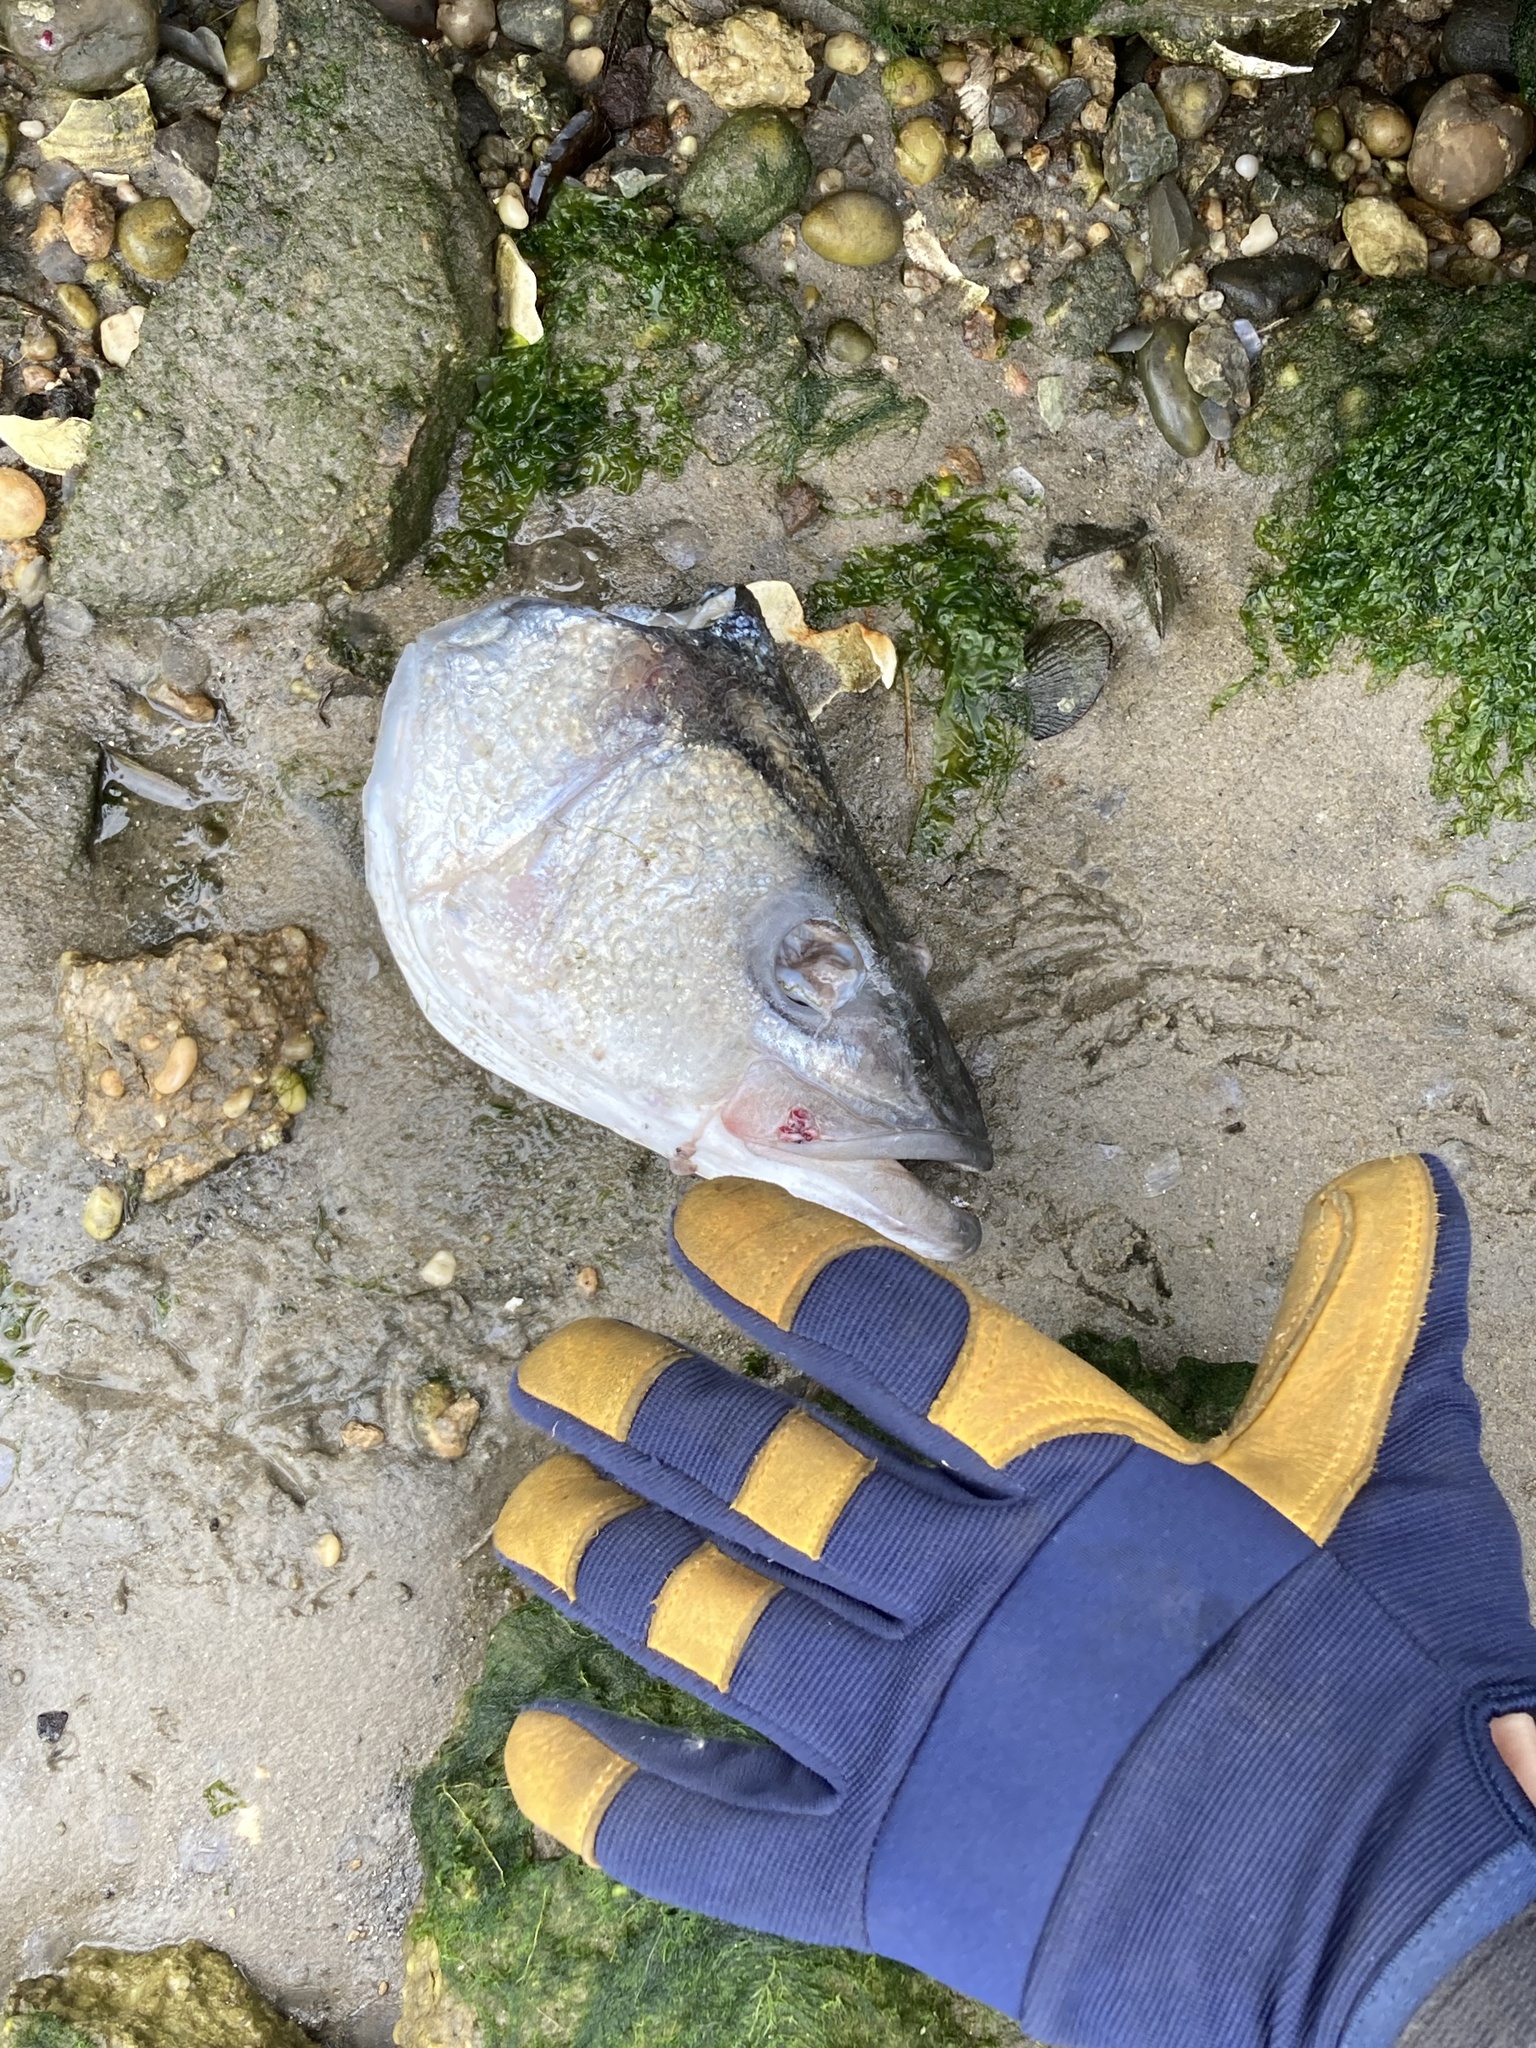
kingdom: Animalia
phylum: Chordata
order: Perciformes
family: Moronidae
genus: Morone
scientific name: Morone saxatilis
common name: Striped bass
